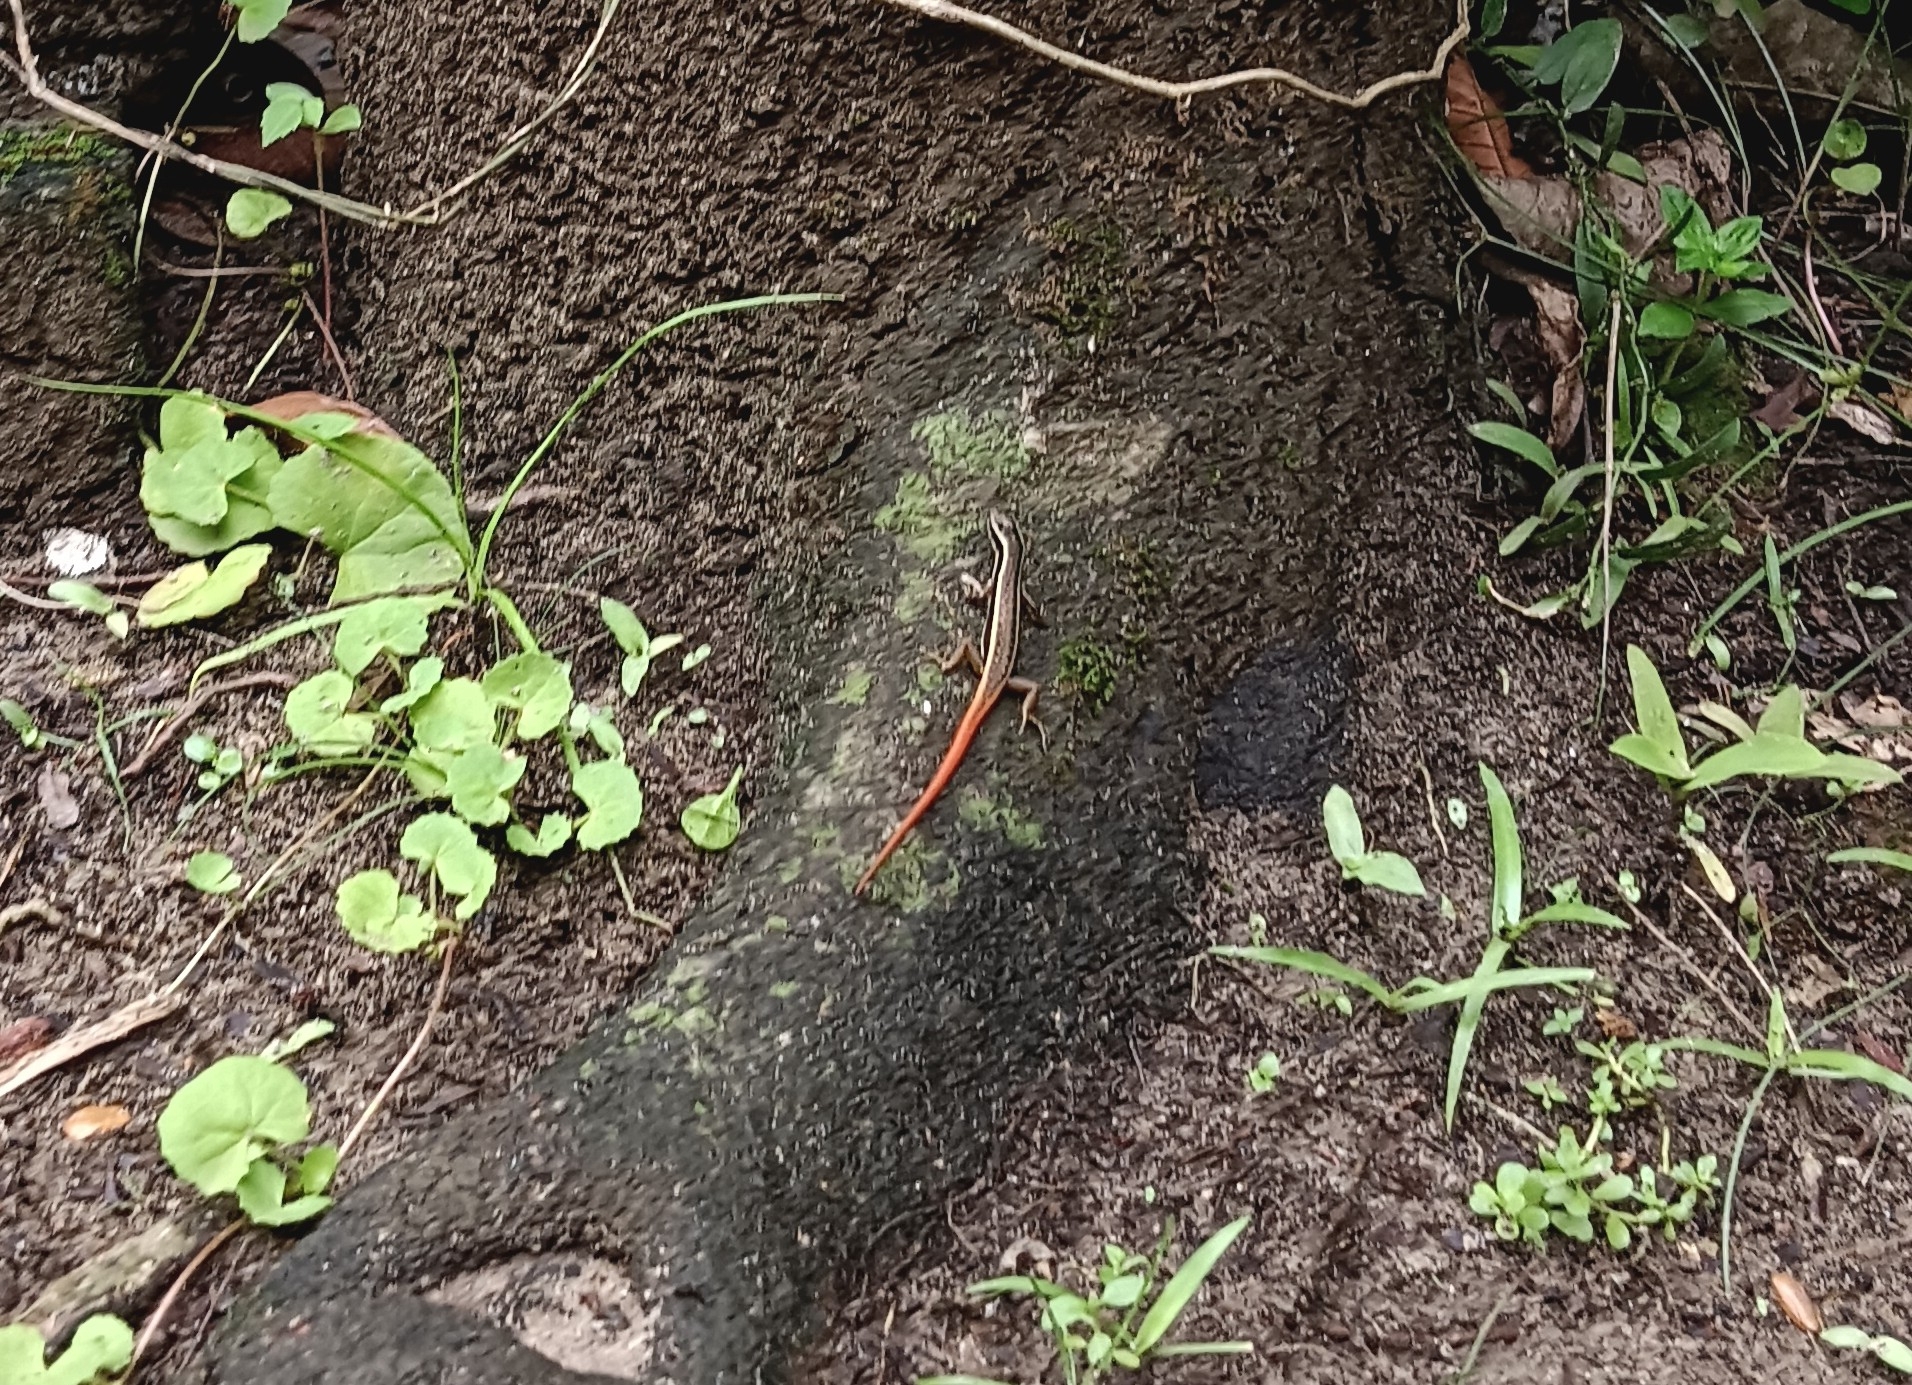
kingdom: Animalia
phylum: Chordata
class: Squamata
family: Scincidae
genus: Sphenomorphus
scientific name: Sphenomorphus dussumieri
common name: Dussumier's forest skink
